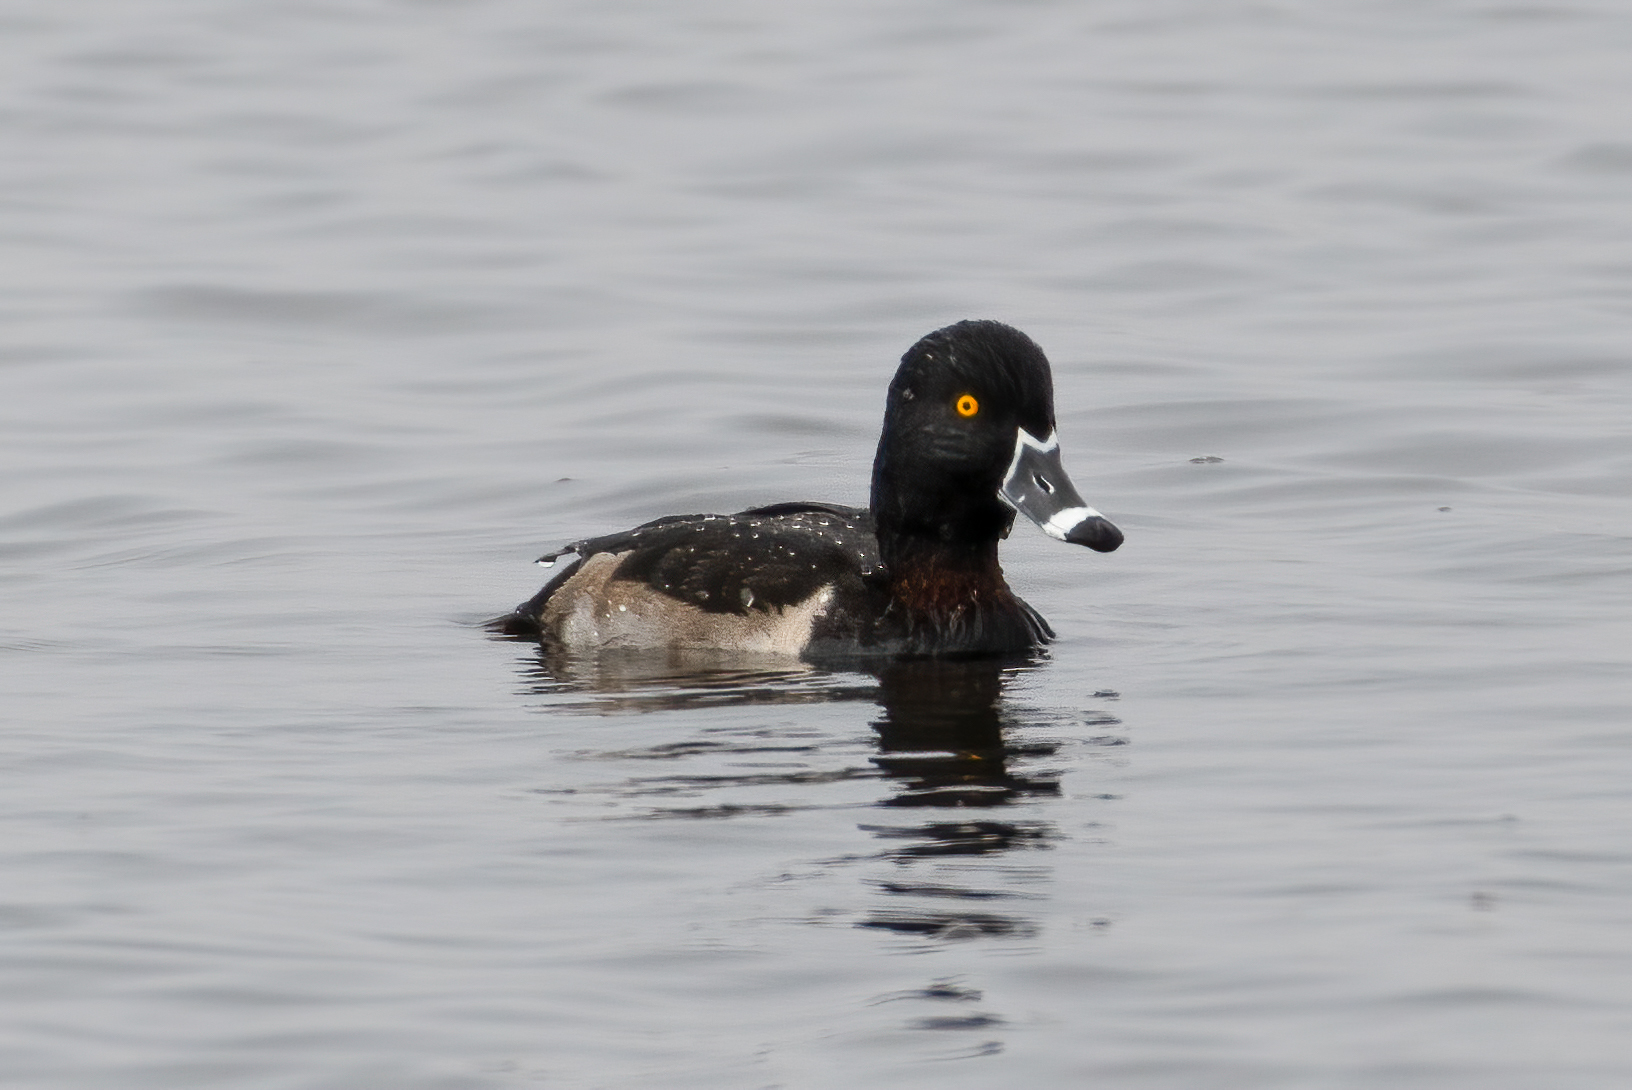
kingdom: Animalia
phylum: Chordata
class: Aves
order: Anseriformes
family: Anatidae
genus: Aythya
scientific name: Aythya collaris
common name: Ring-necked duck
